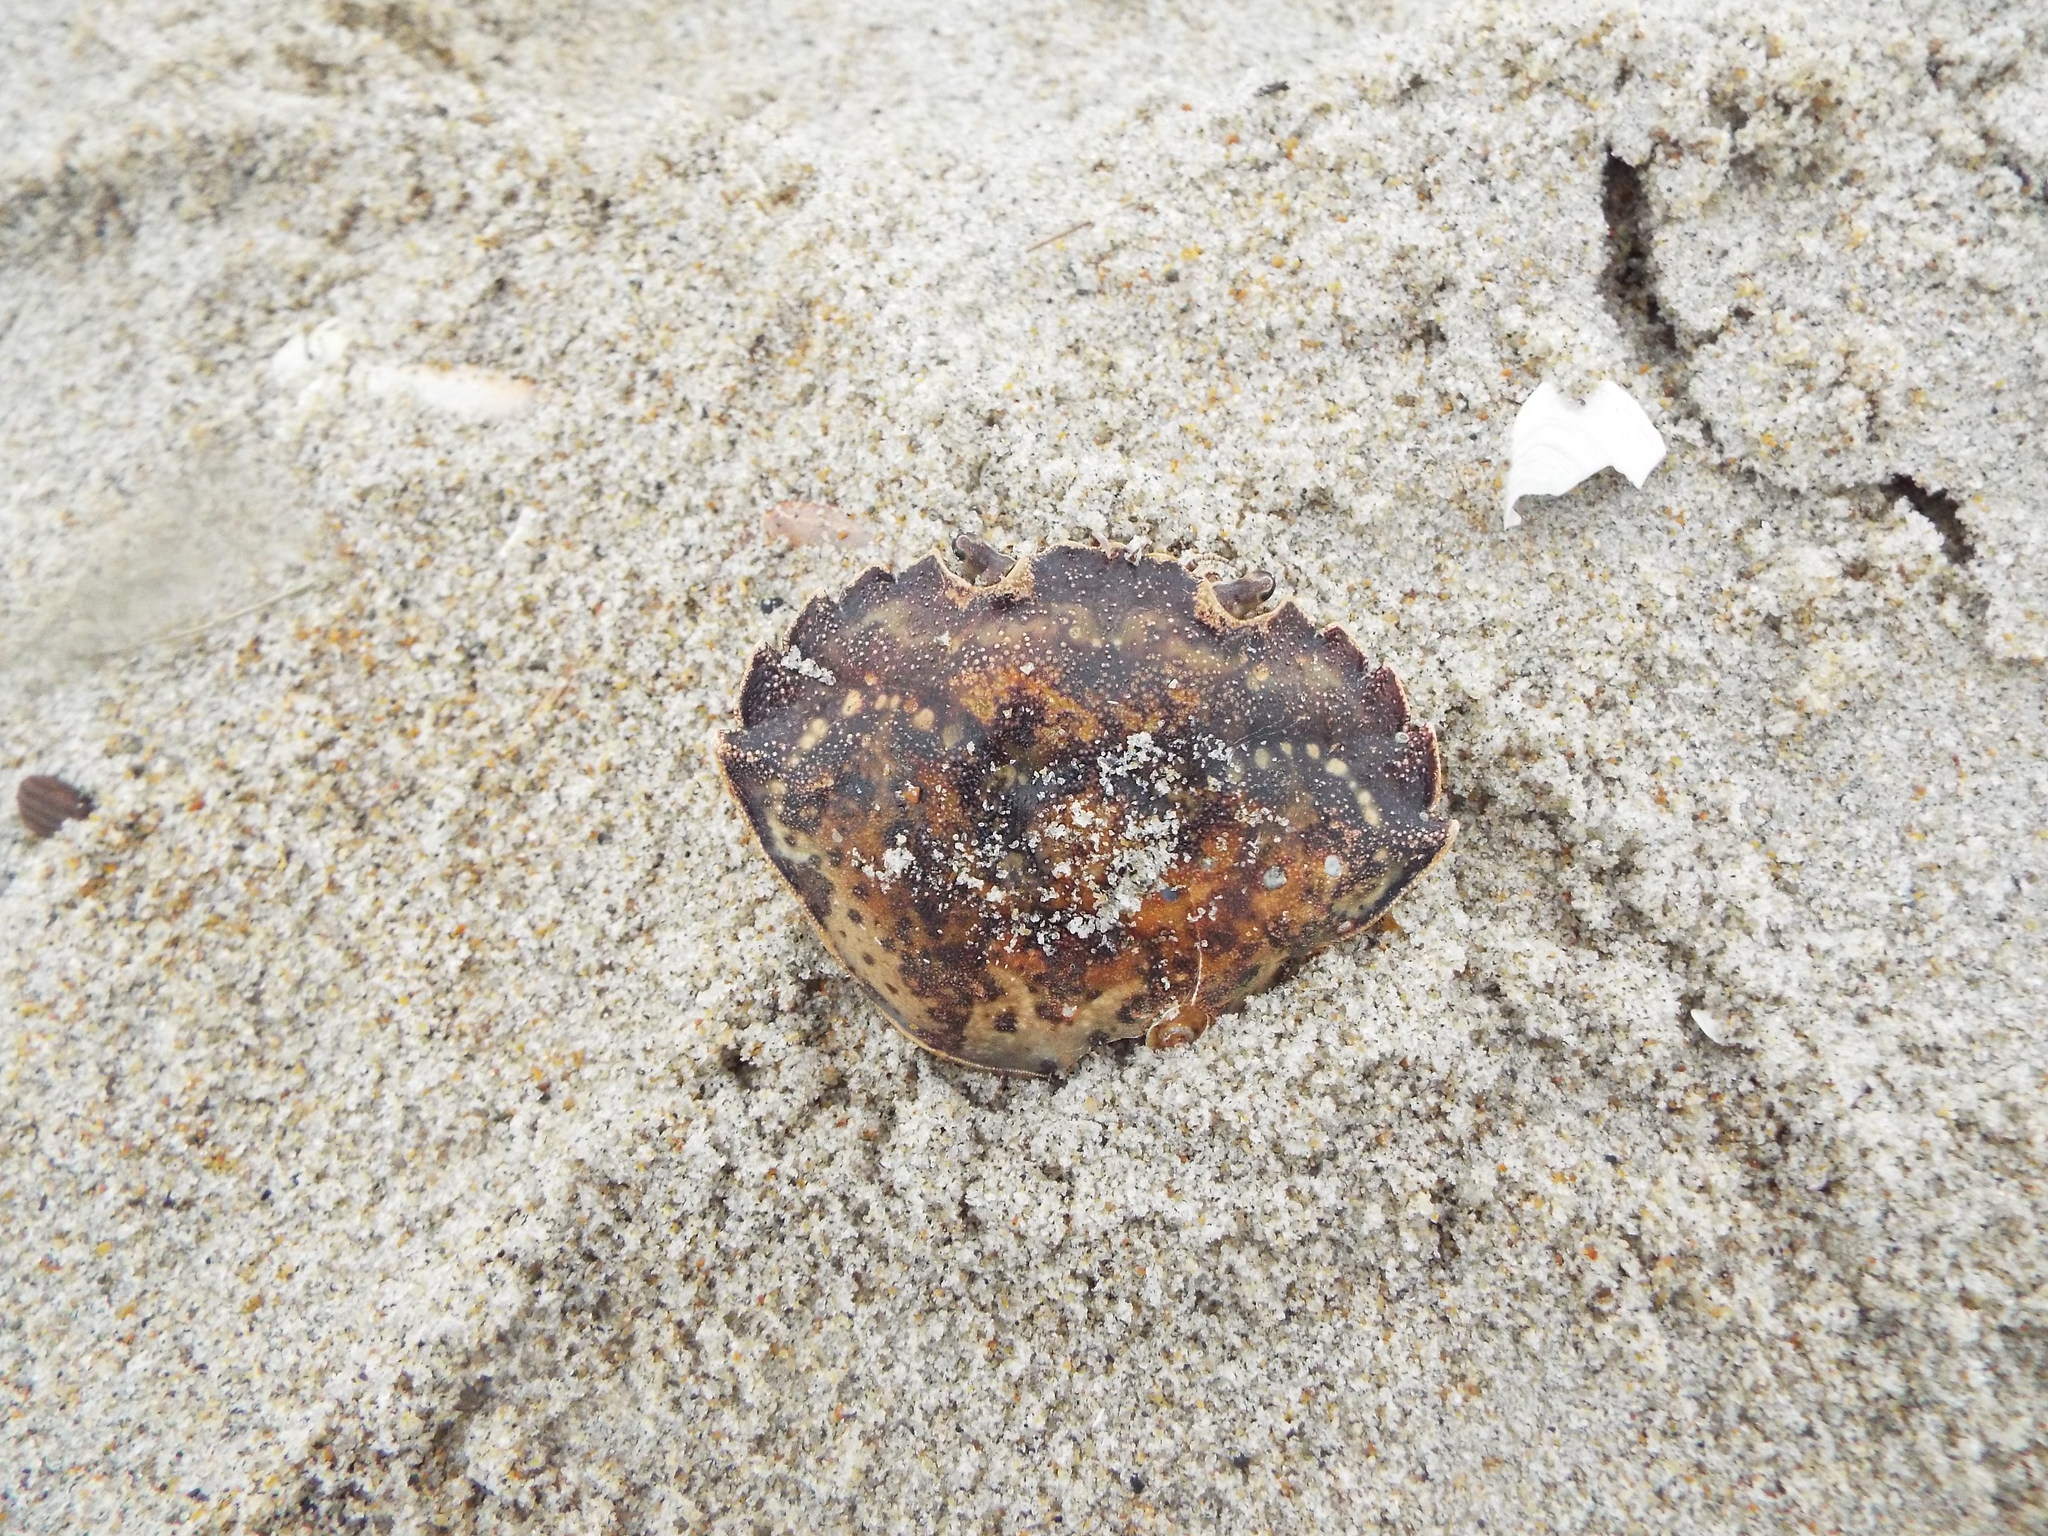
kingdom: Animalia
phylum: Arthropoda
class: Malacostraca
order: Decapoda
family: Carcinidae
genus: Carcinus
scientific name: Carcinus maenas
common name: European green crab
